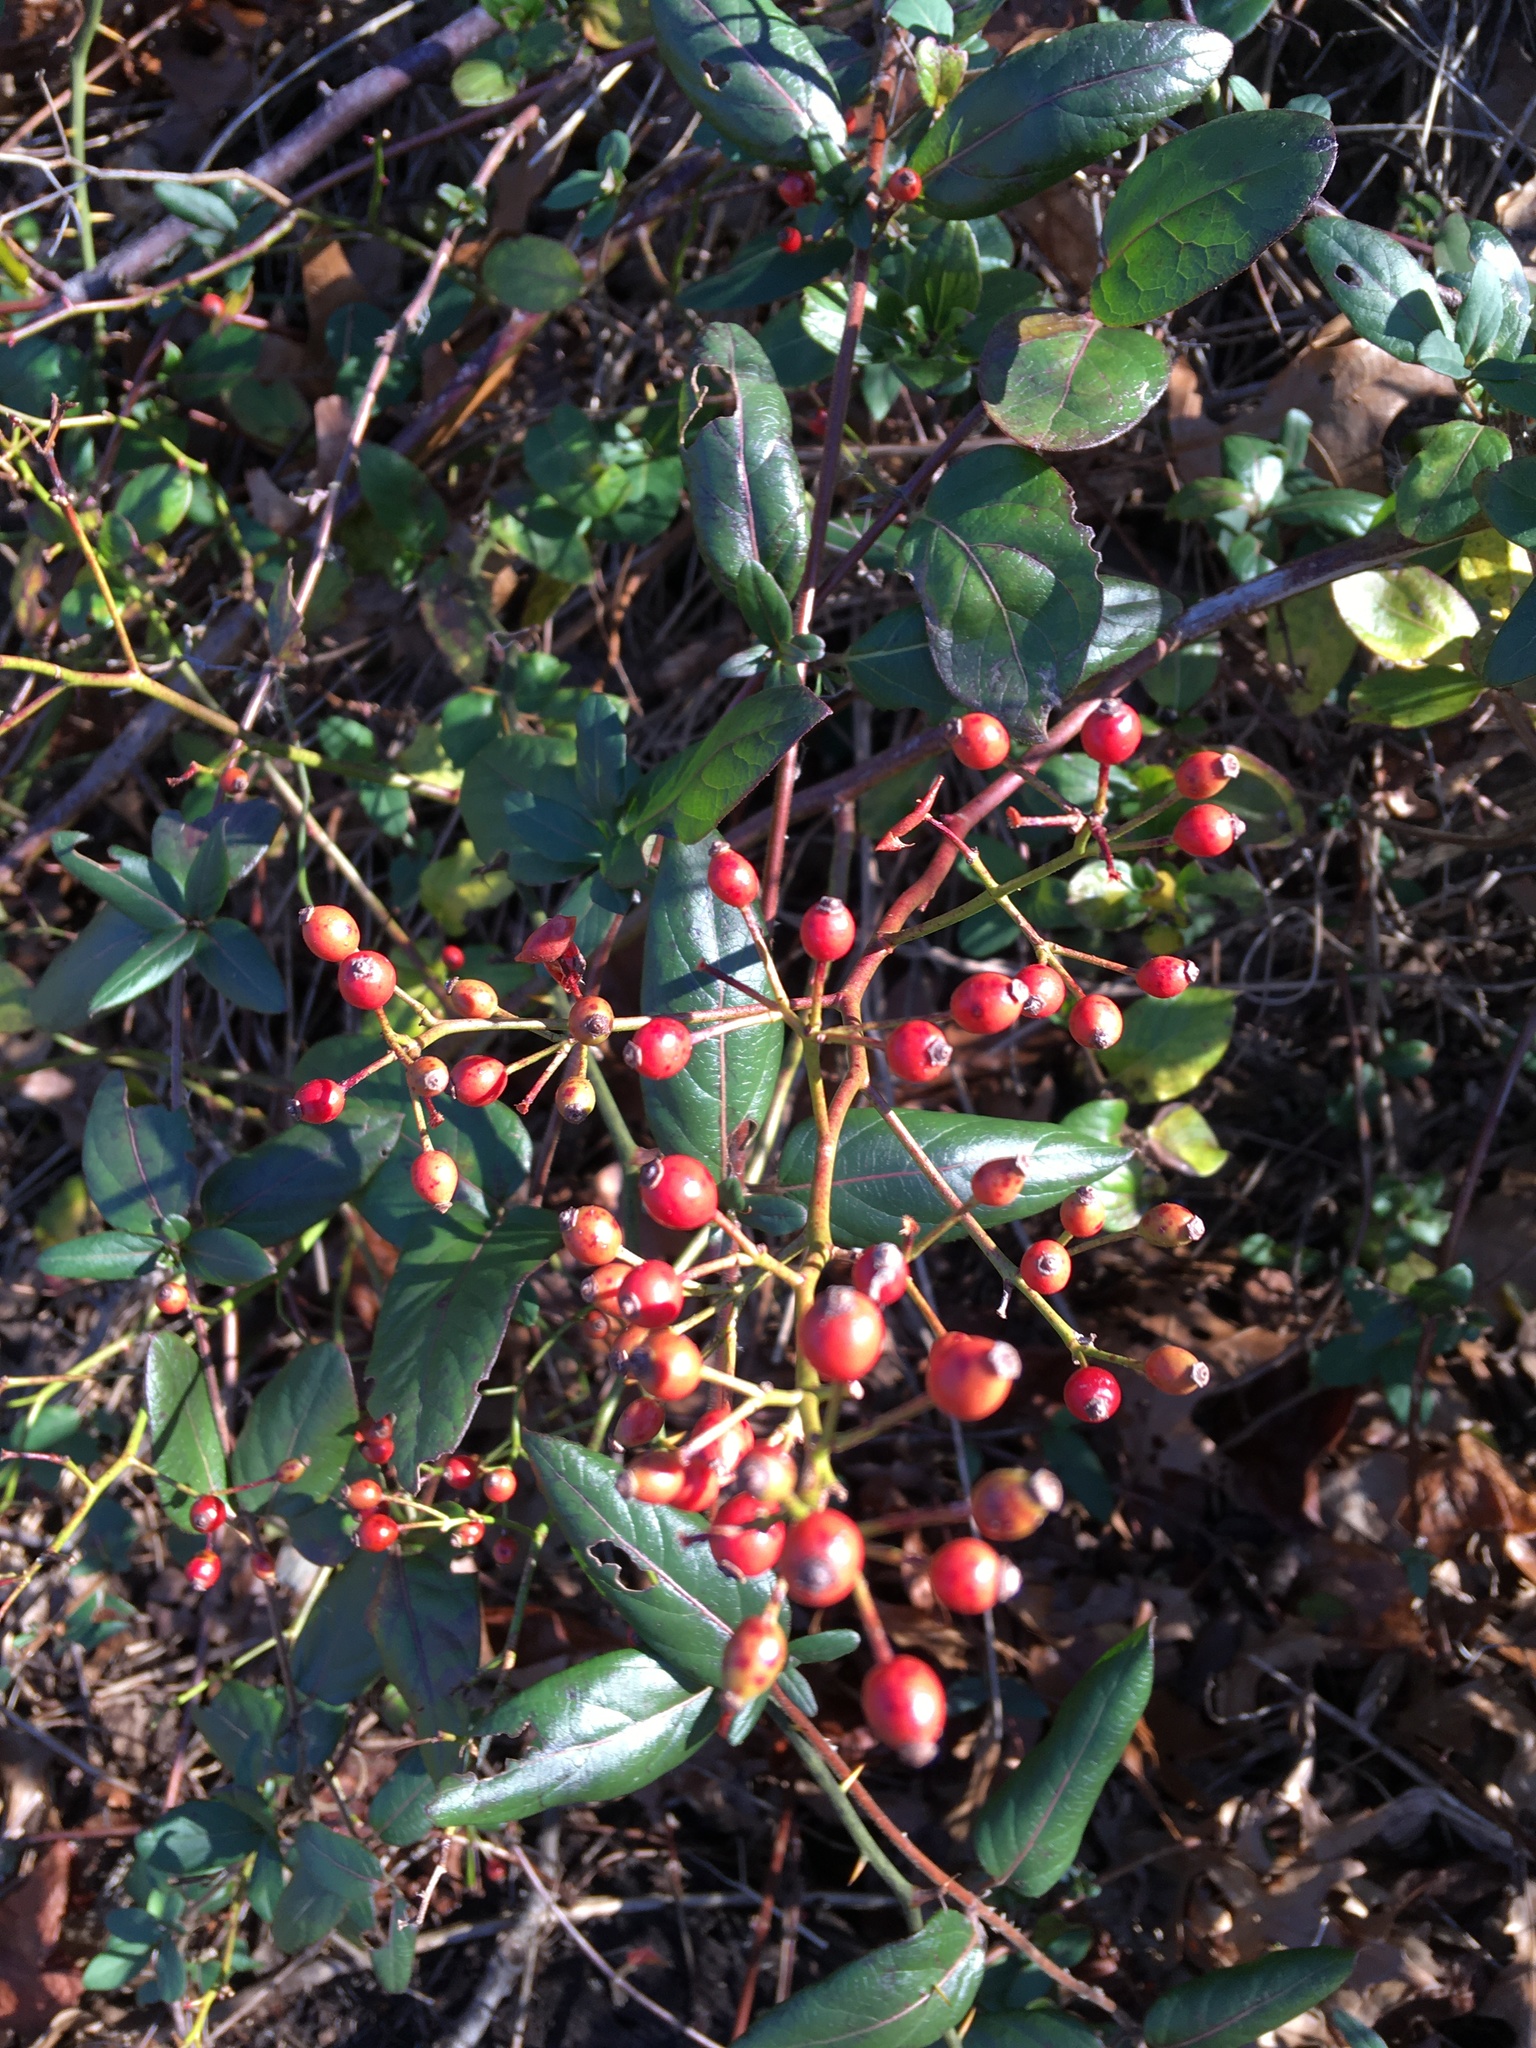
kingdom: Plantae
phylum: Tracheophyta
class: Magnoliopsida
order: Rosales
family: Rosaceae
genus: Rosa
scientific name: Rosa multiflora
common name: Multiflora rose
